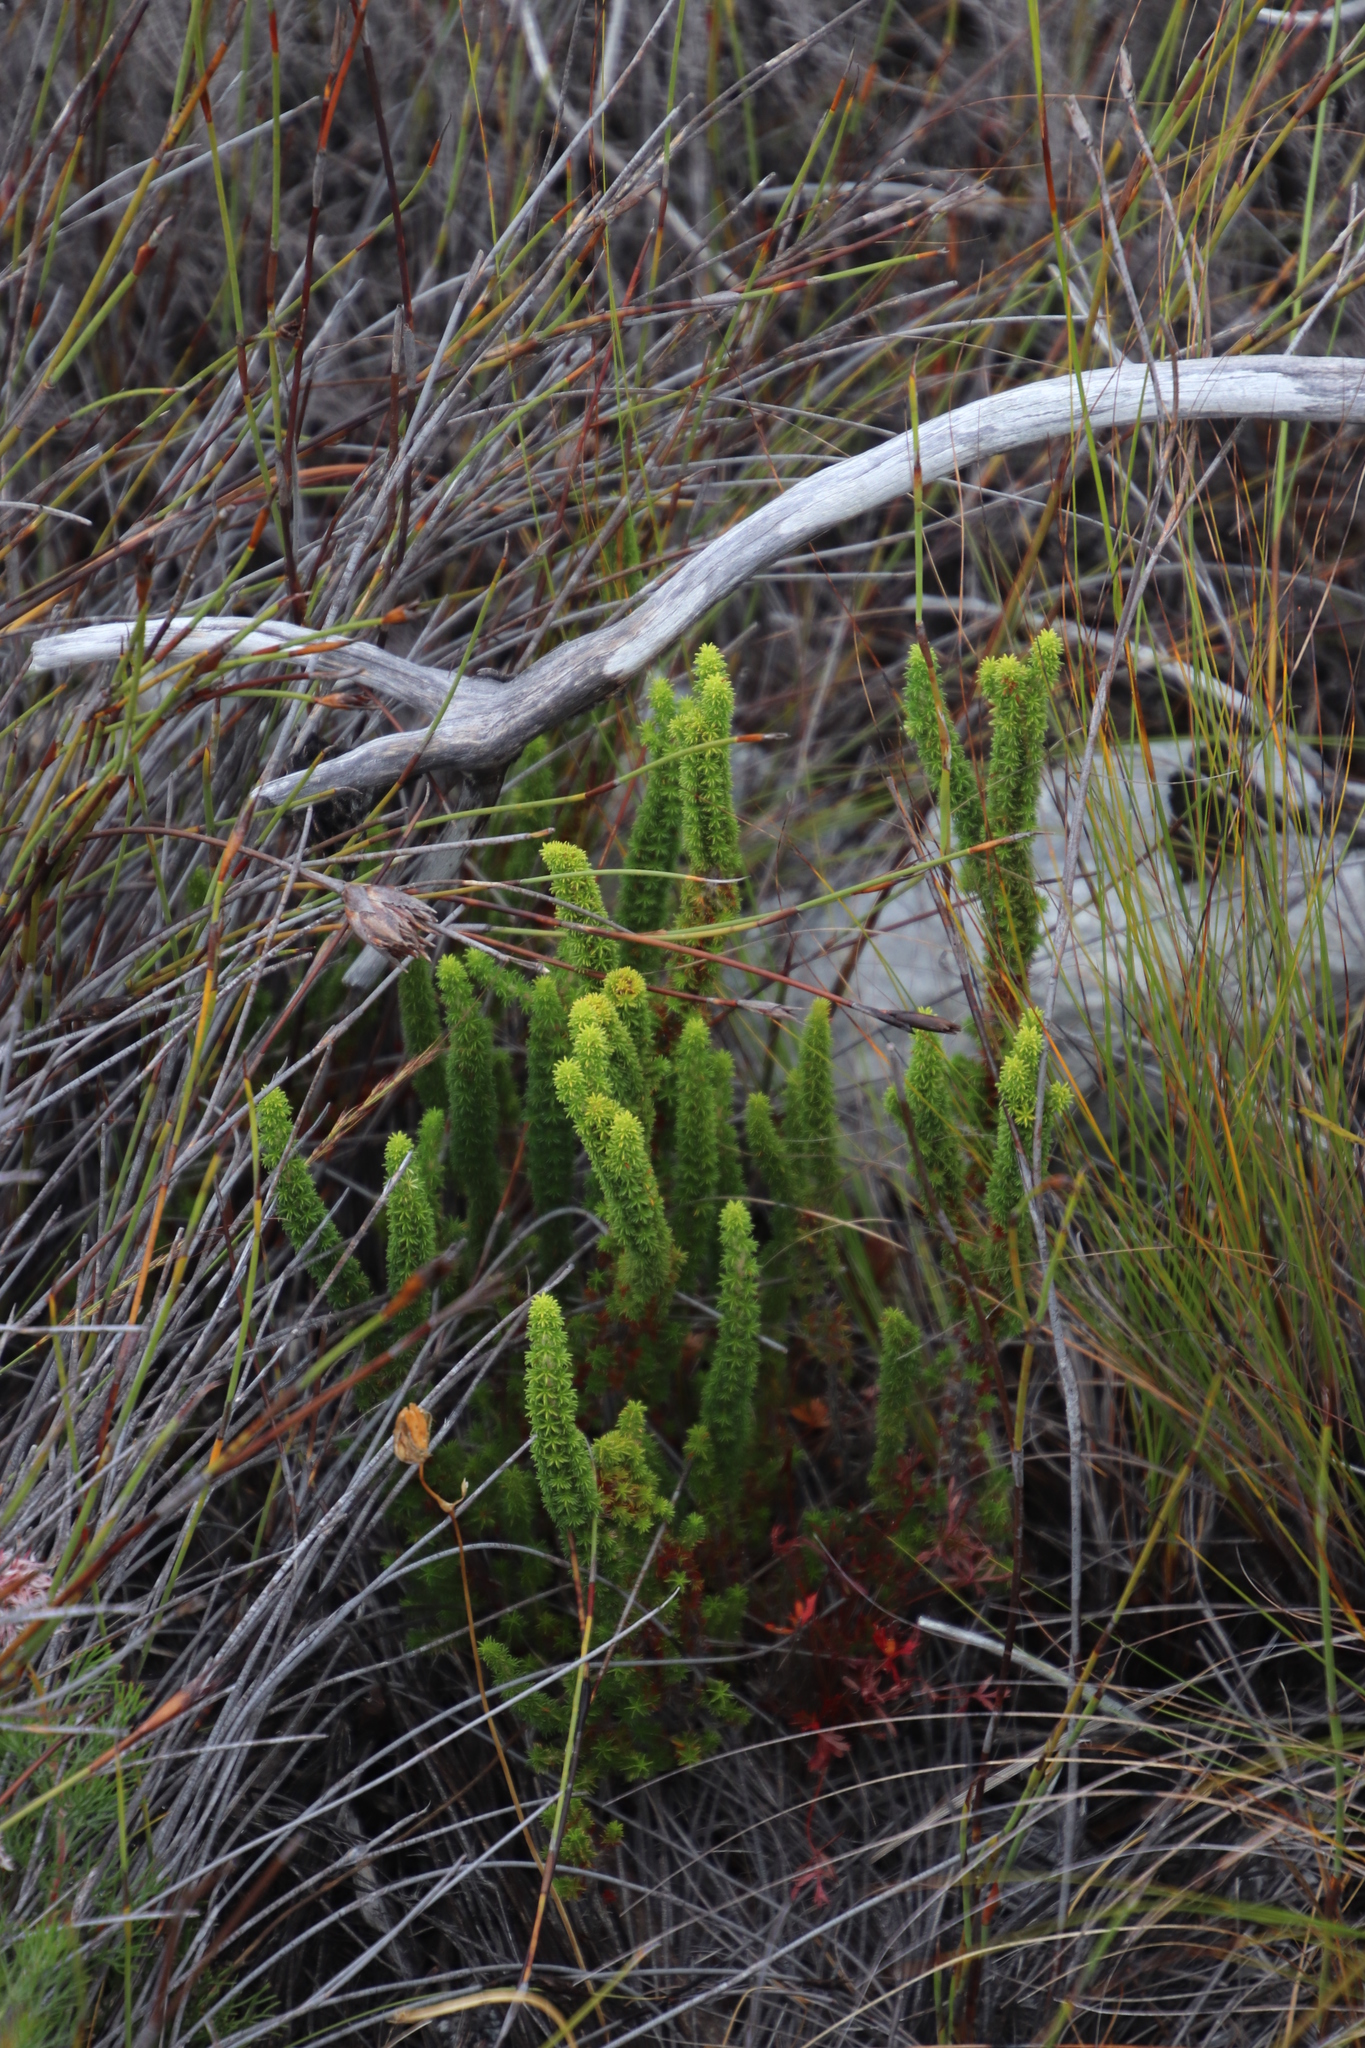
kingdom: Plantae
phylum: Tracheophyta
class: Magnoliopsida
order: Ericales
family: Ericaceae
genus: Erica
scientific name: Erica coccinea
